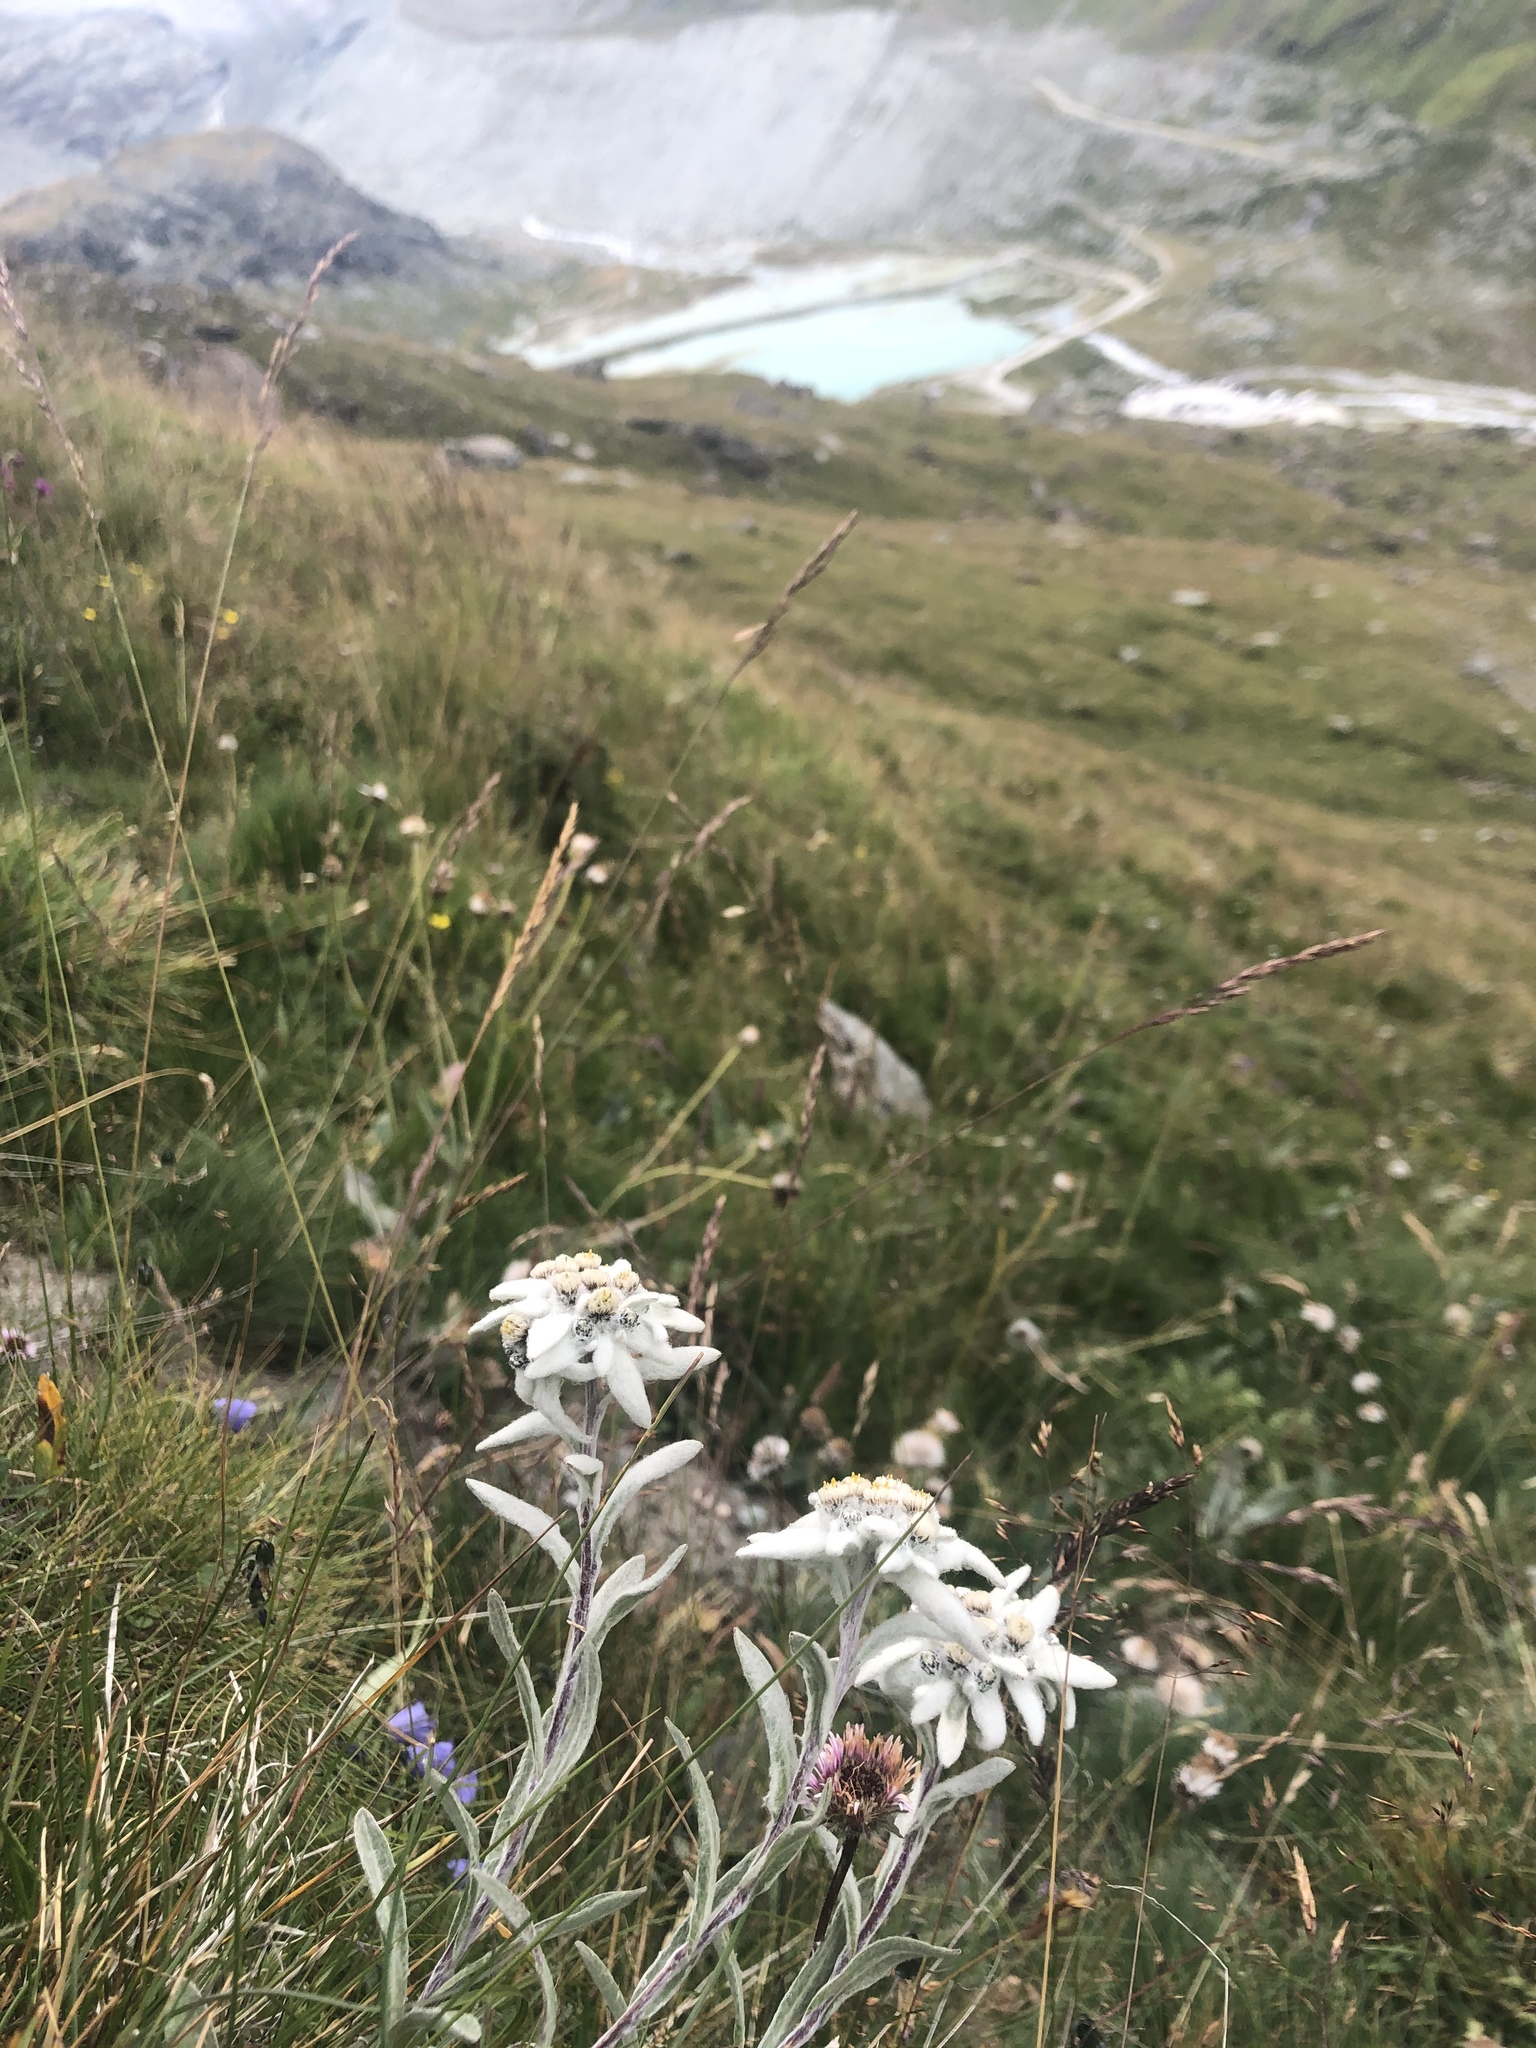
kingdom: Plantae
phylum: Tracheophyta
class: Magnoliopsida
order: Asterales
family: Asteraceae
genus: Leontopodium
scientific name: Leontopodium nivale
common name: Edelweiss
